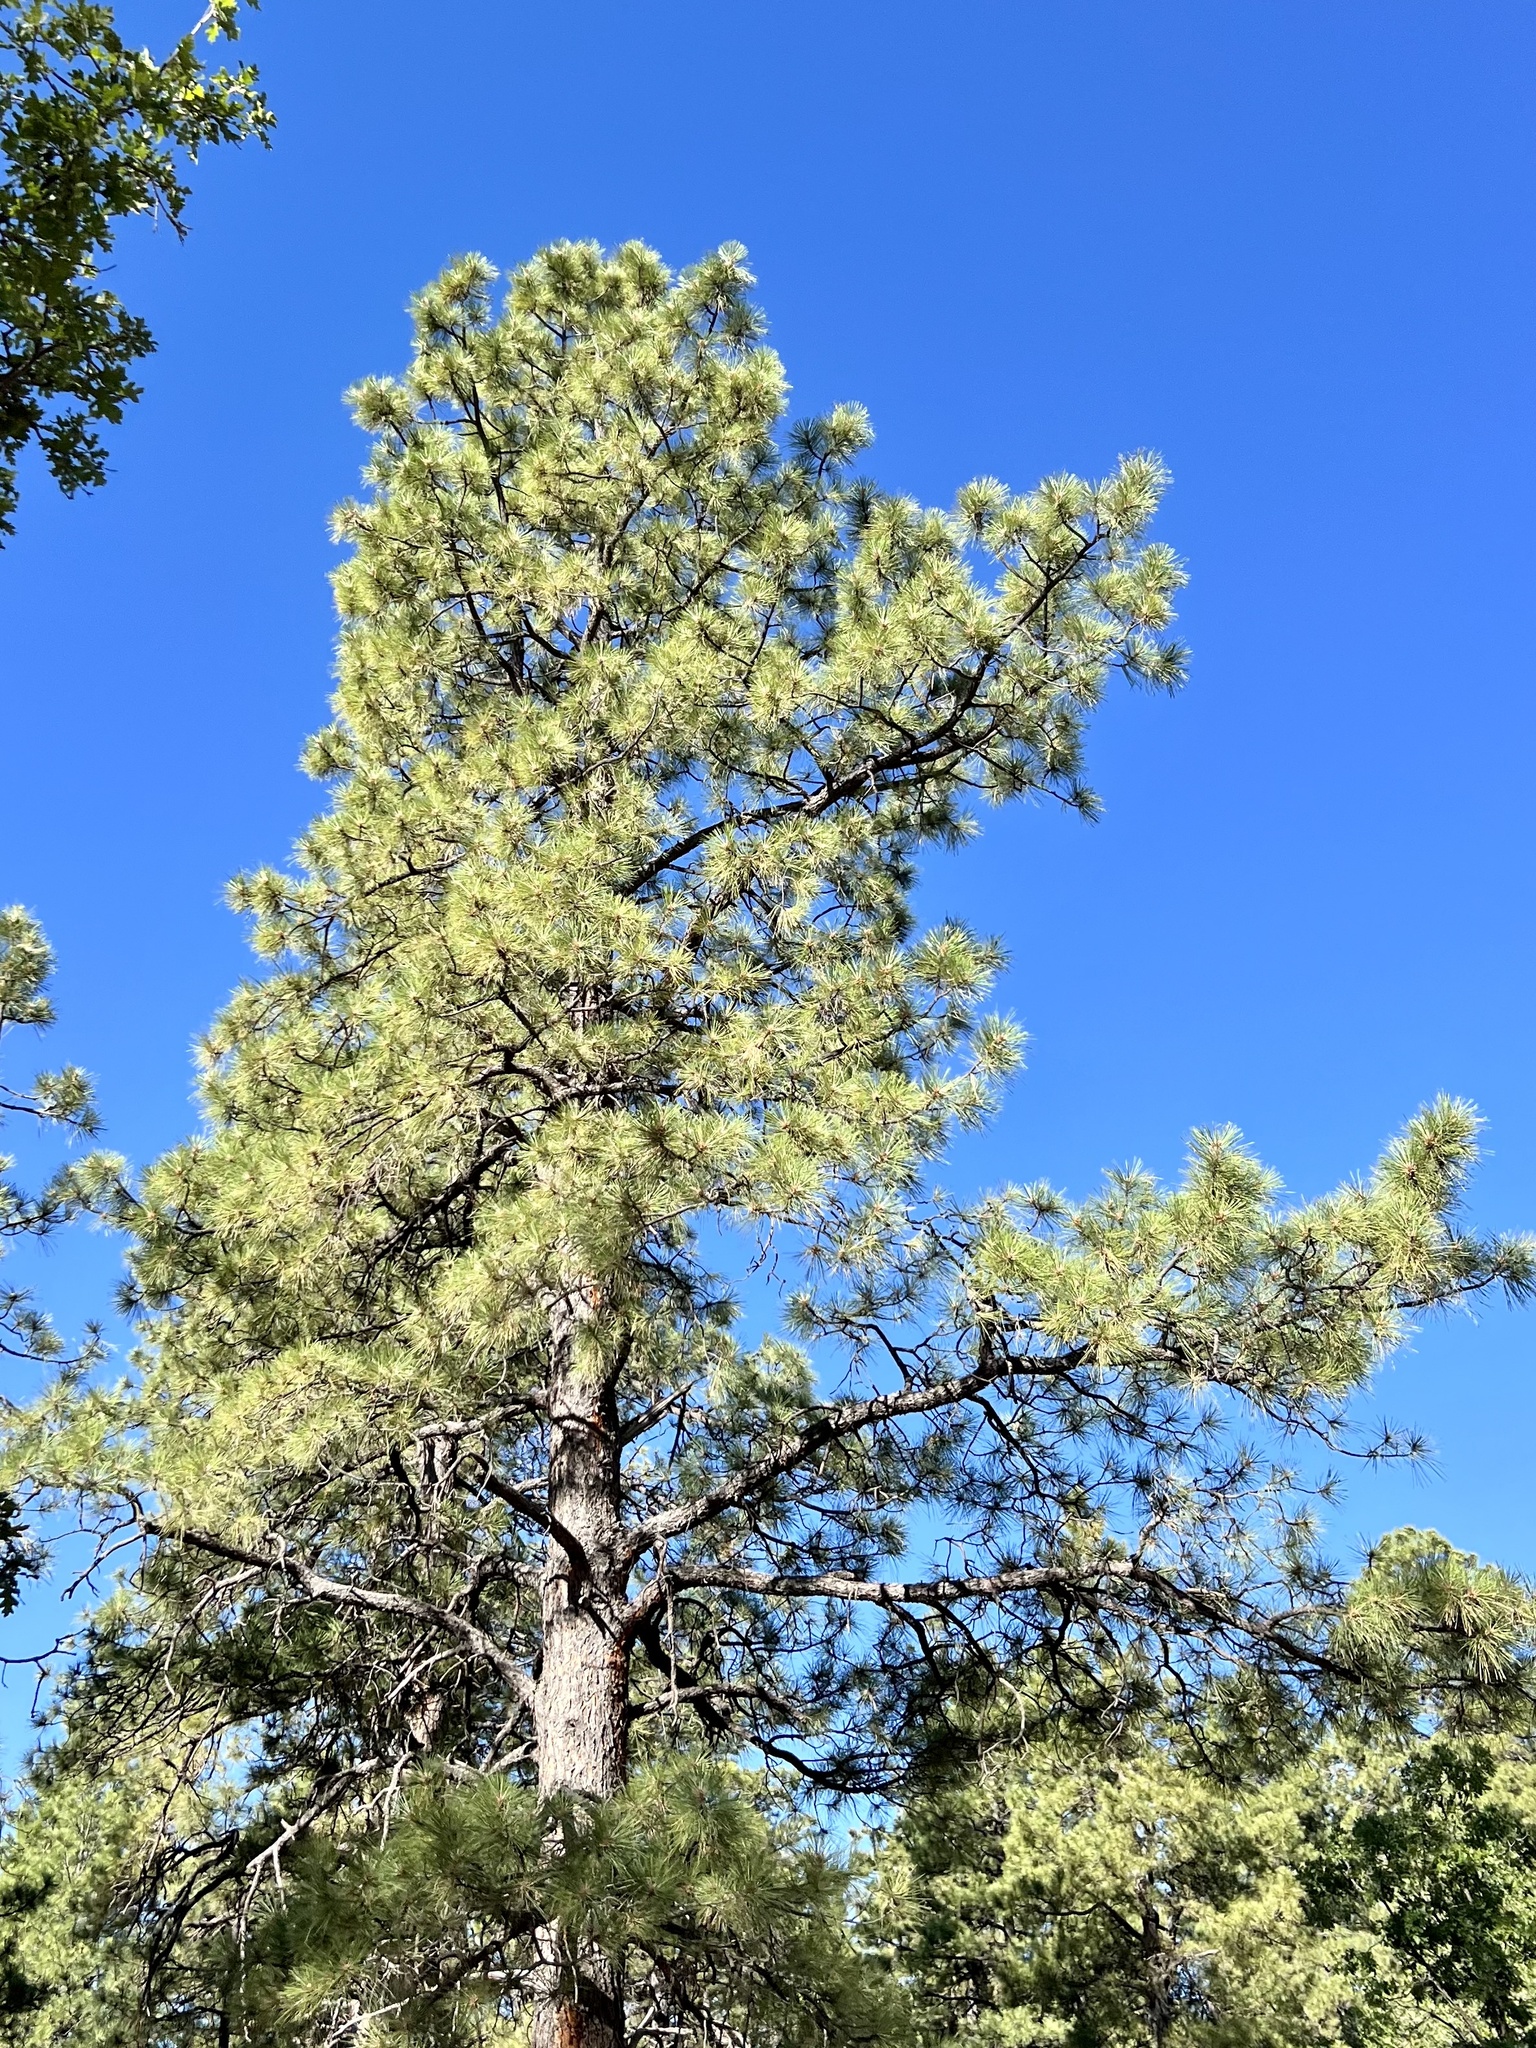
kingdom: Plantae
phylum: Tracheophyta
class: Pinopsida
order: Pinales
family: Pinaceae
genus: Pinus
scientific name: Pinus ponderosa
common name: Western yellow-pine
